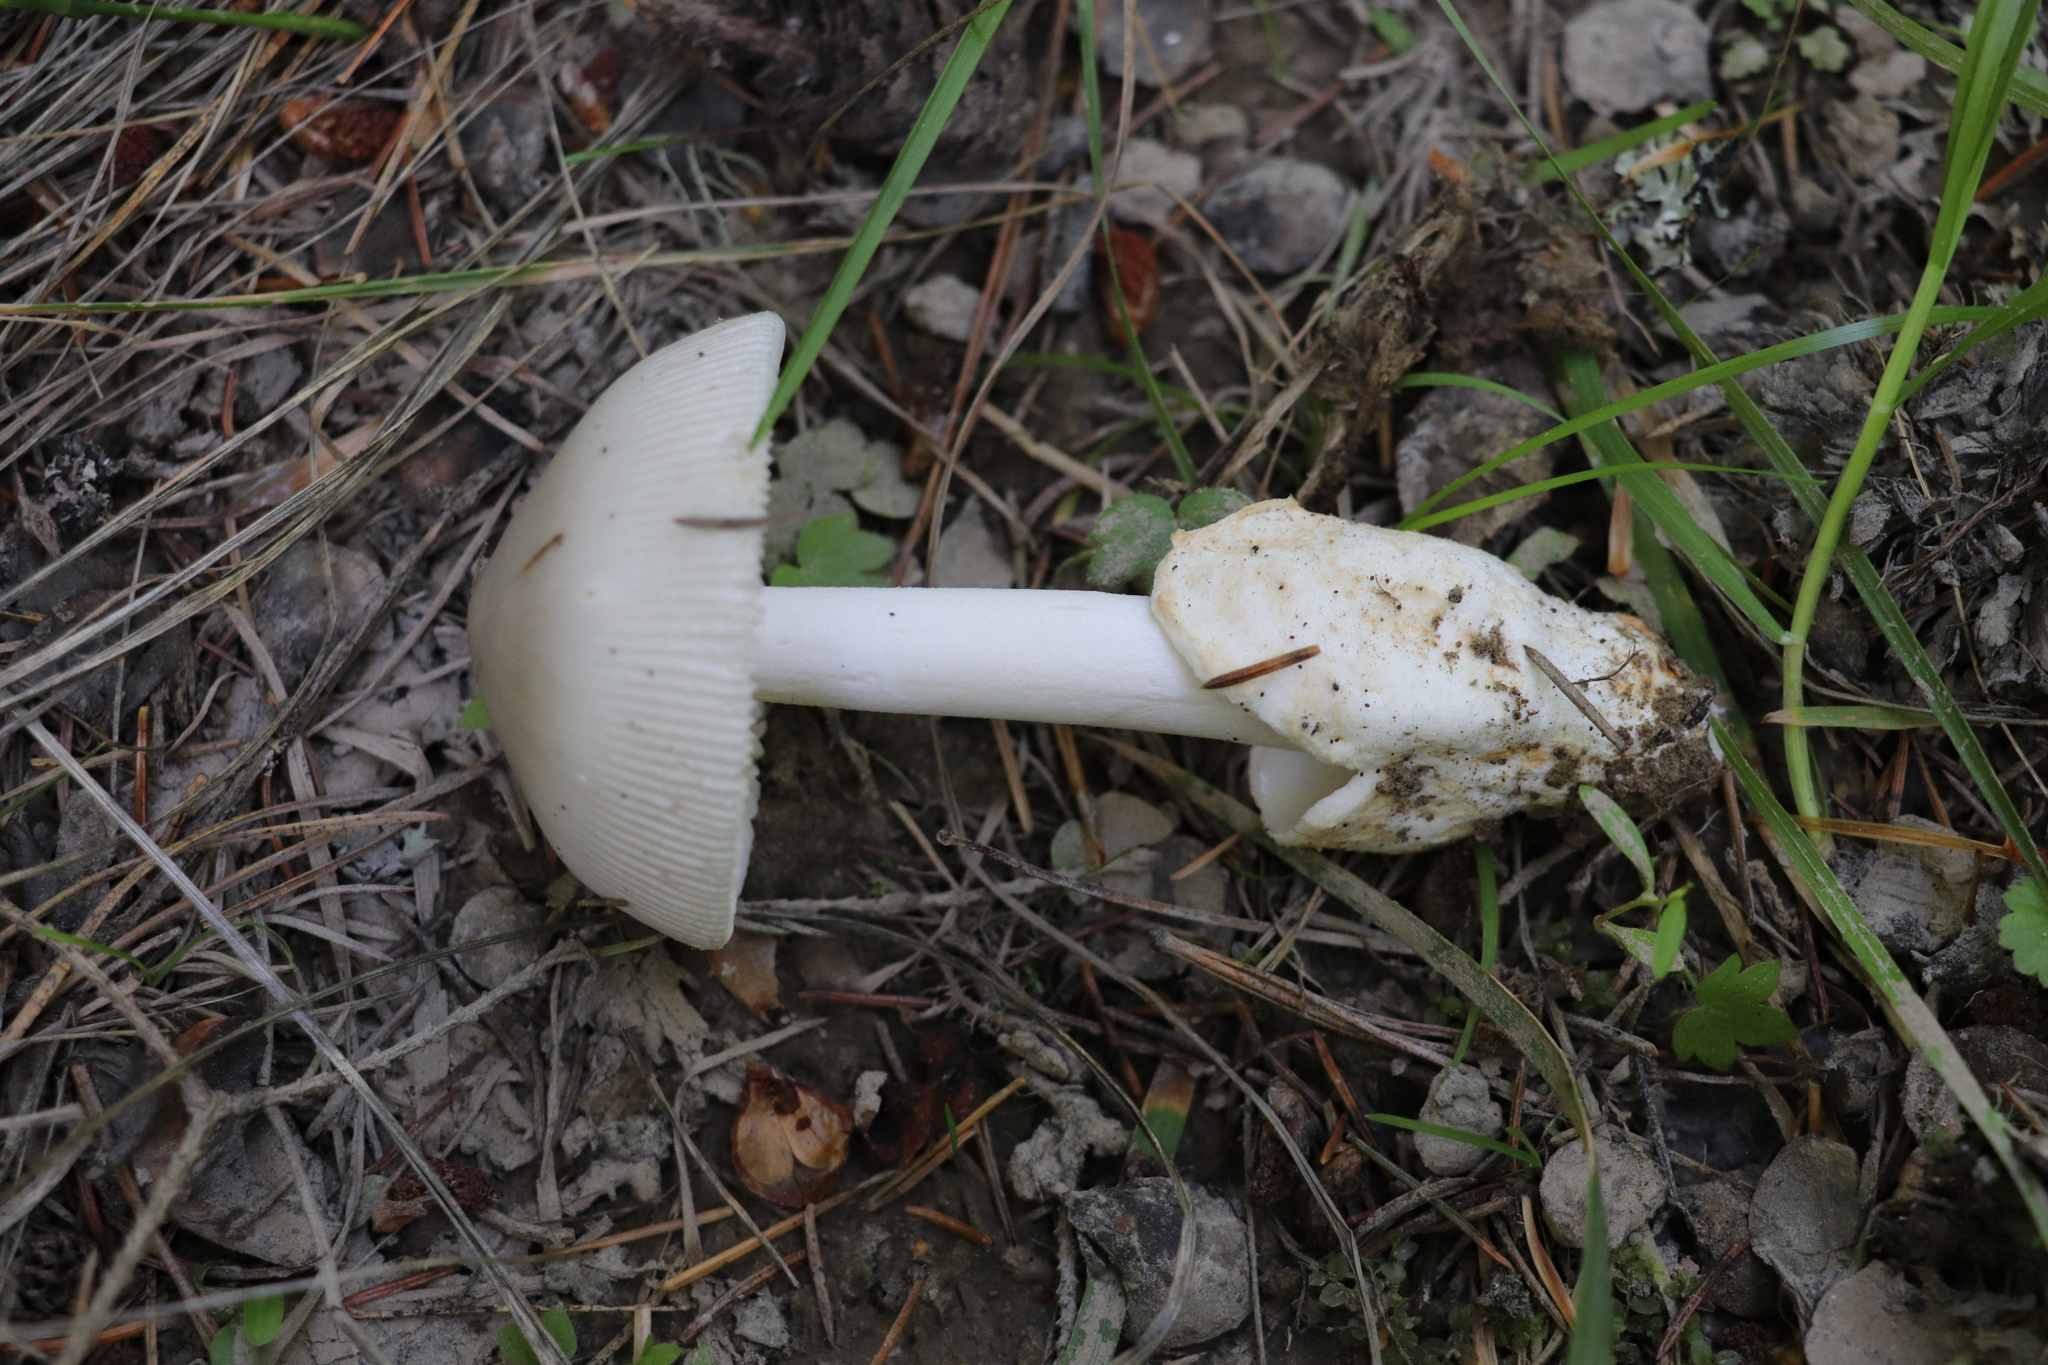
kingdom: Fungi
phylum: Basidiomycota
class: Agaricomycetes
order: Agaricales
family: Amanitaceae
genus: Amanita
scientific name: Amanita vaginata
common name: Grisette
